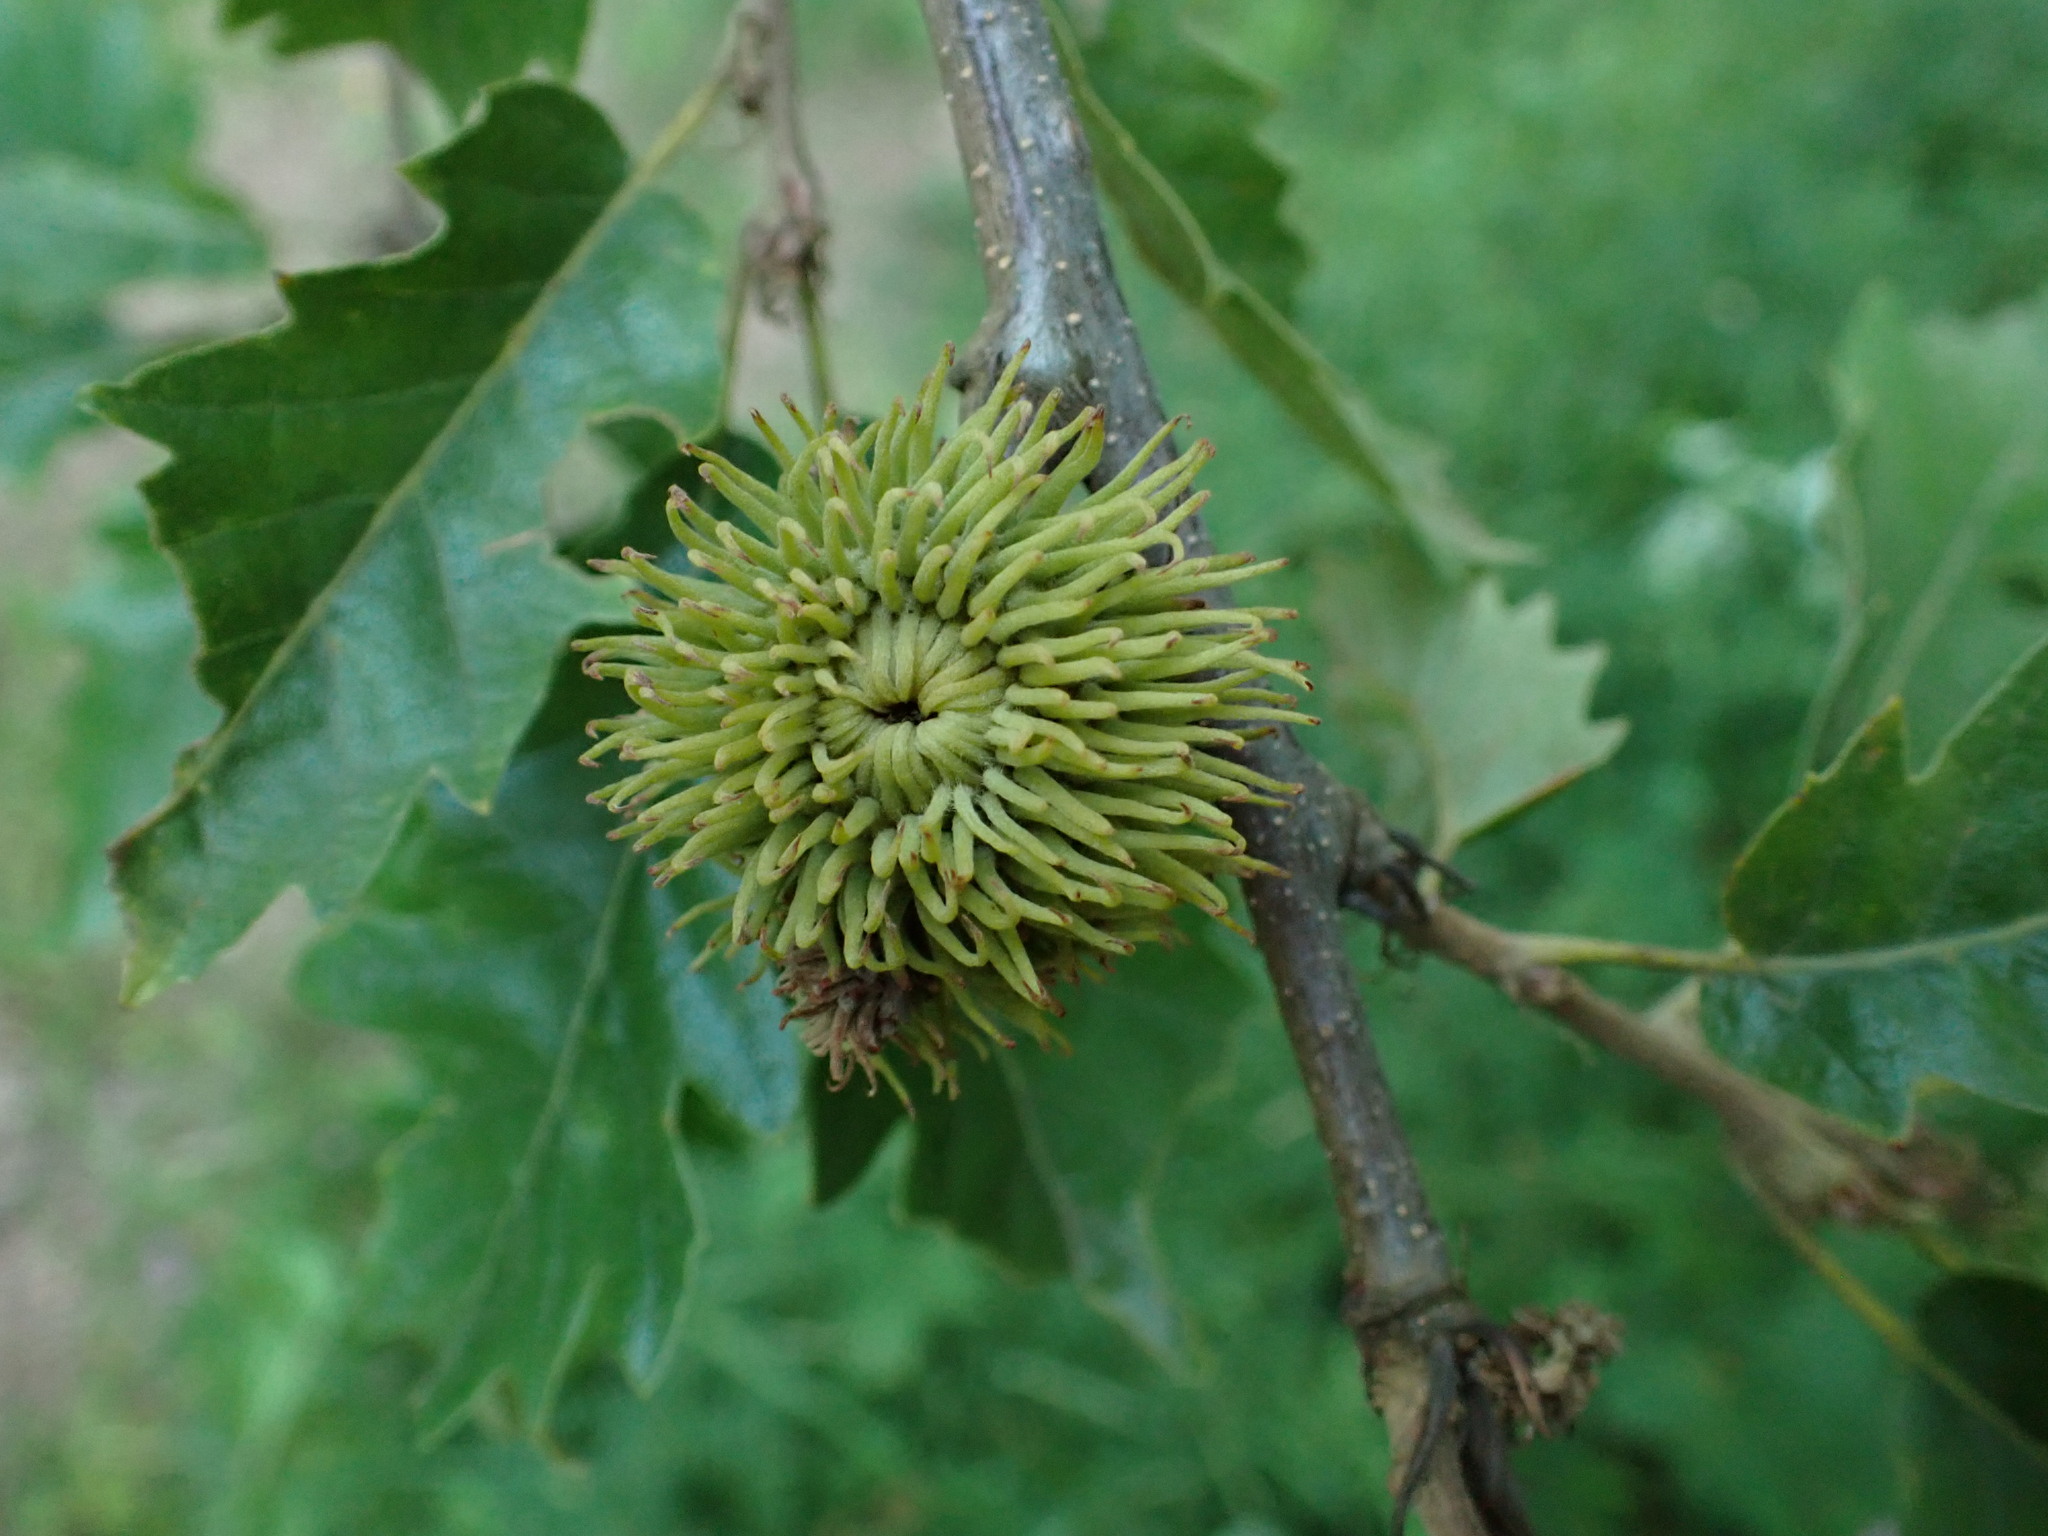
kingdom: Plantae
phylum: Tracheophyta
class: Magnoliopsida
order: Fagales
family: Fagaceae
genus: Quercus
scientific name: Quercus cerris
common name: Turkey oak
